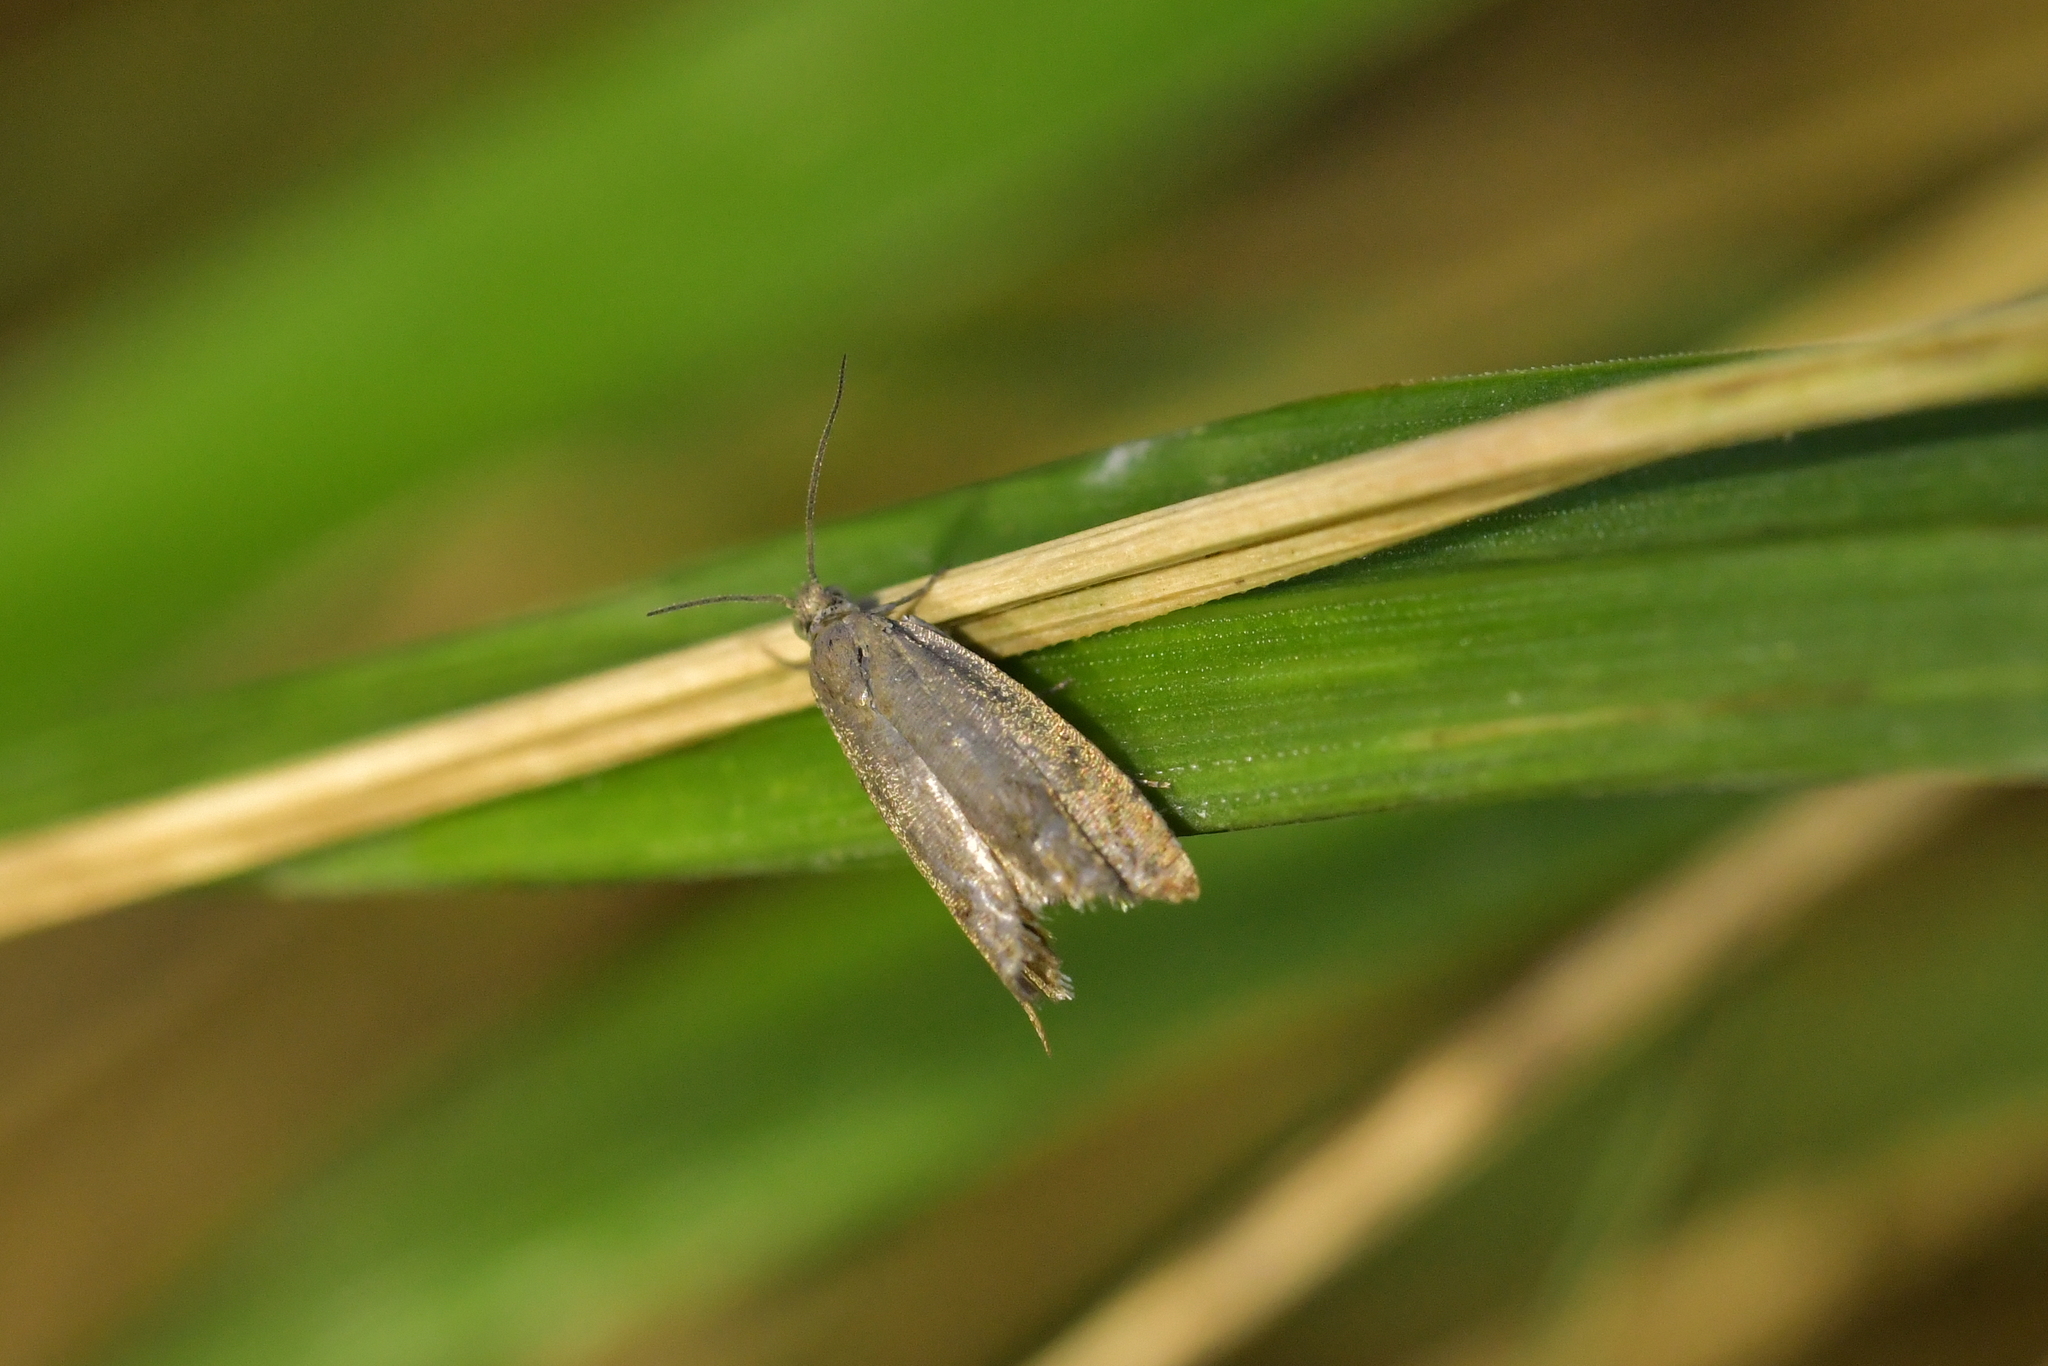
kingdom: Animalia
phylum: Arthropoda
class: Insecta
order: Lepidoptera
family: Tortricidae
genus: Cydia
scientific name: Cydia succedana
